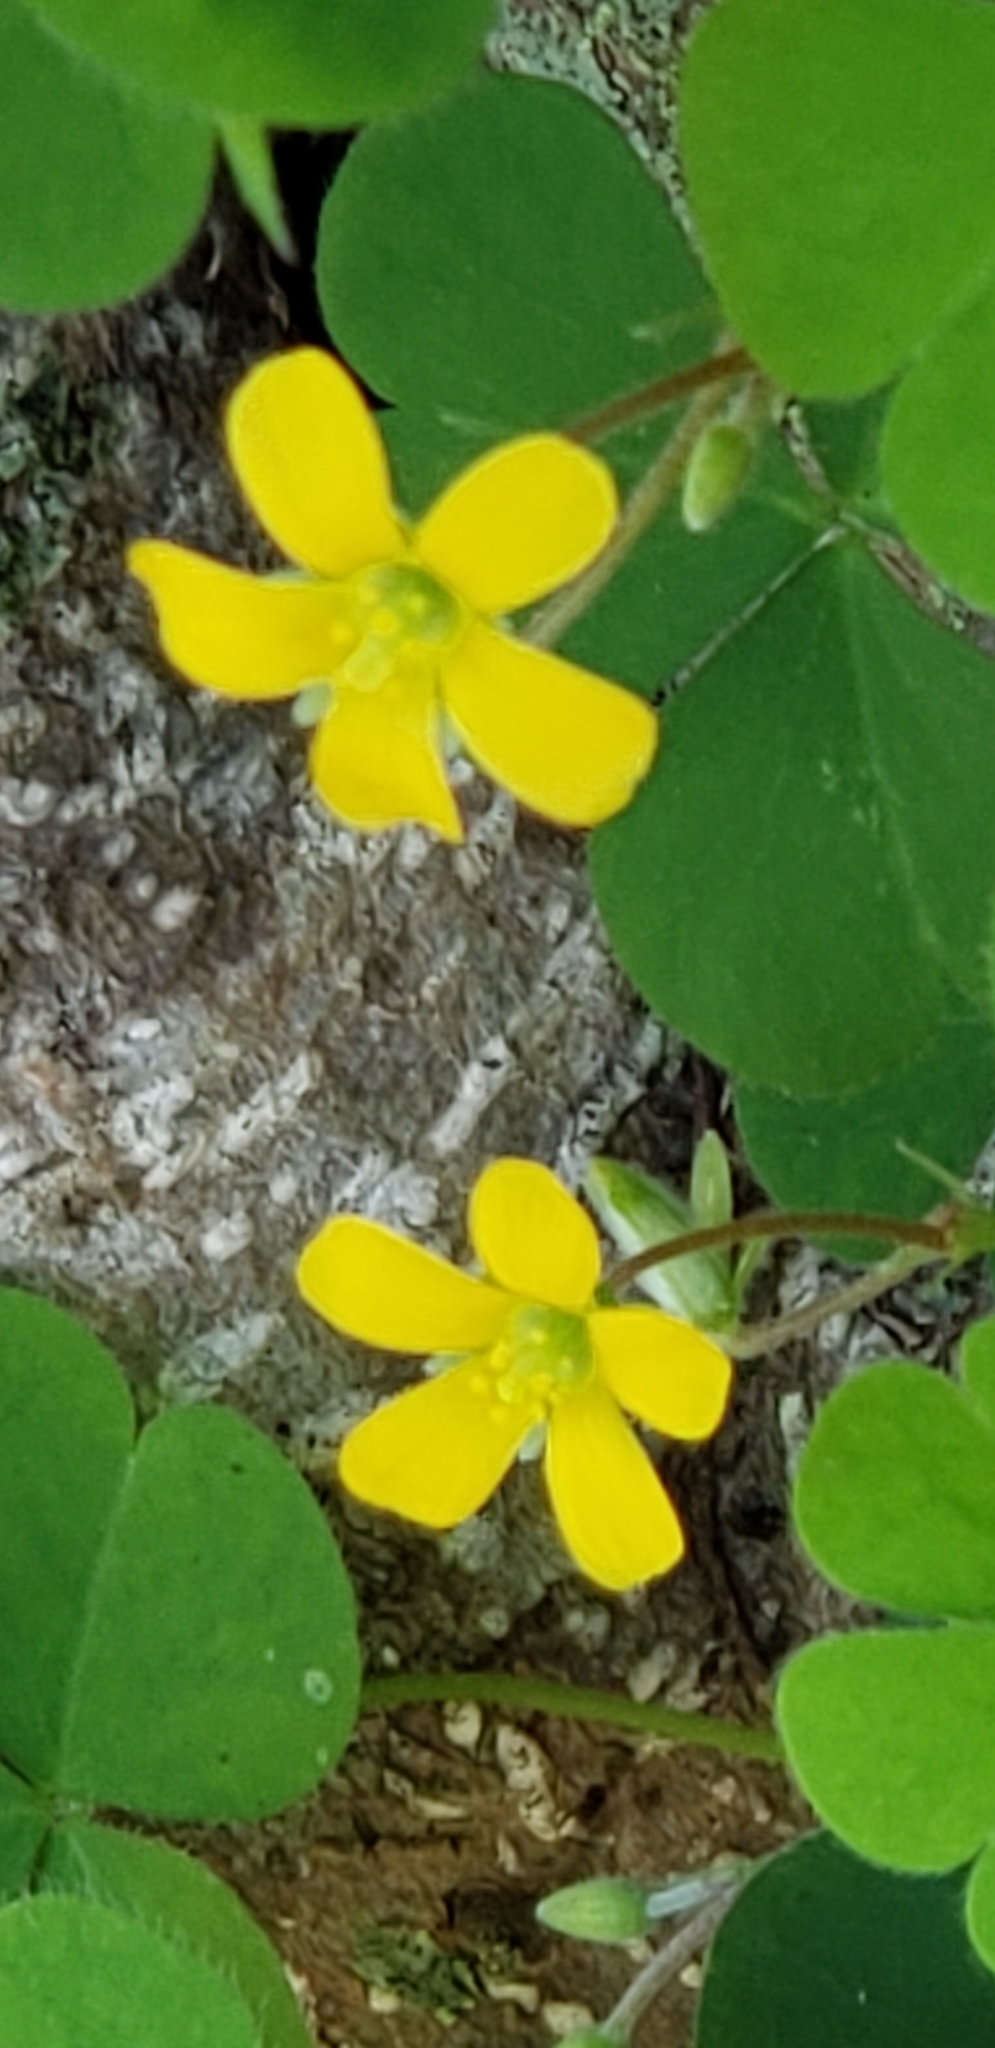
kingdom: Plantae
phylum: Tracheophyta
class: Magnoliopsida
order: Oxalidales
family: Oxalidaceae
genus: Oxalis
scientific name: Oxalis corniculata
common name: Procumbent yellow-sorrel
